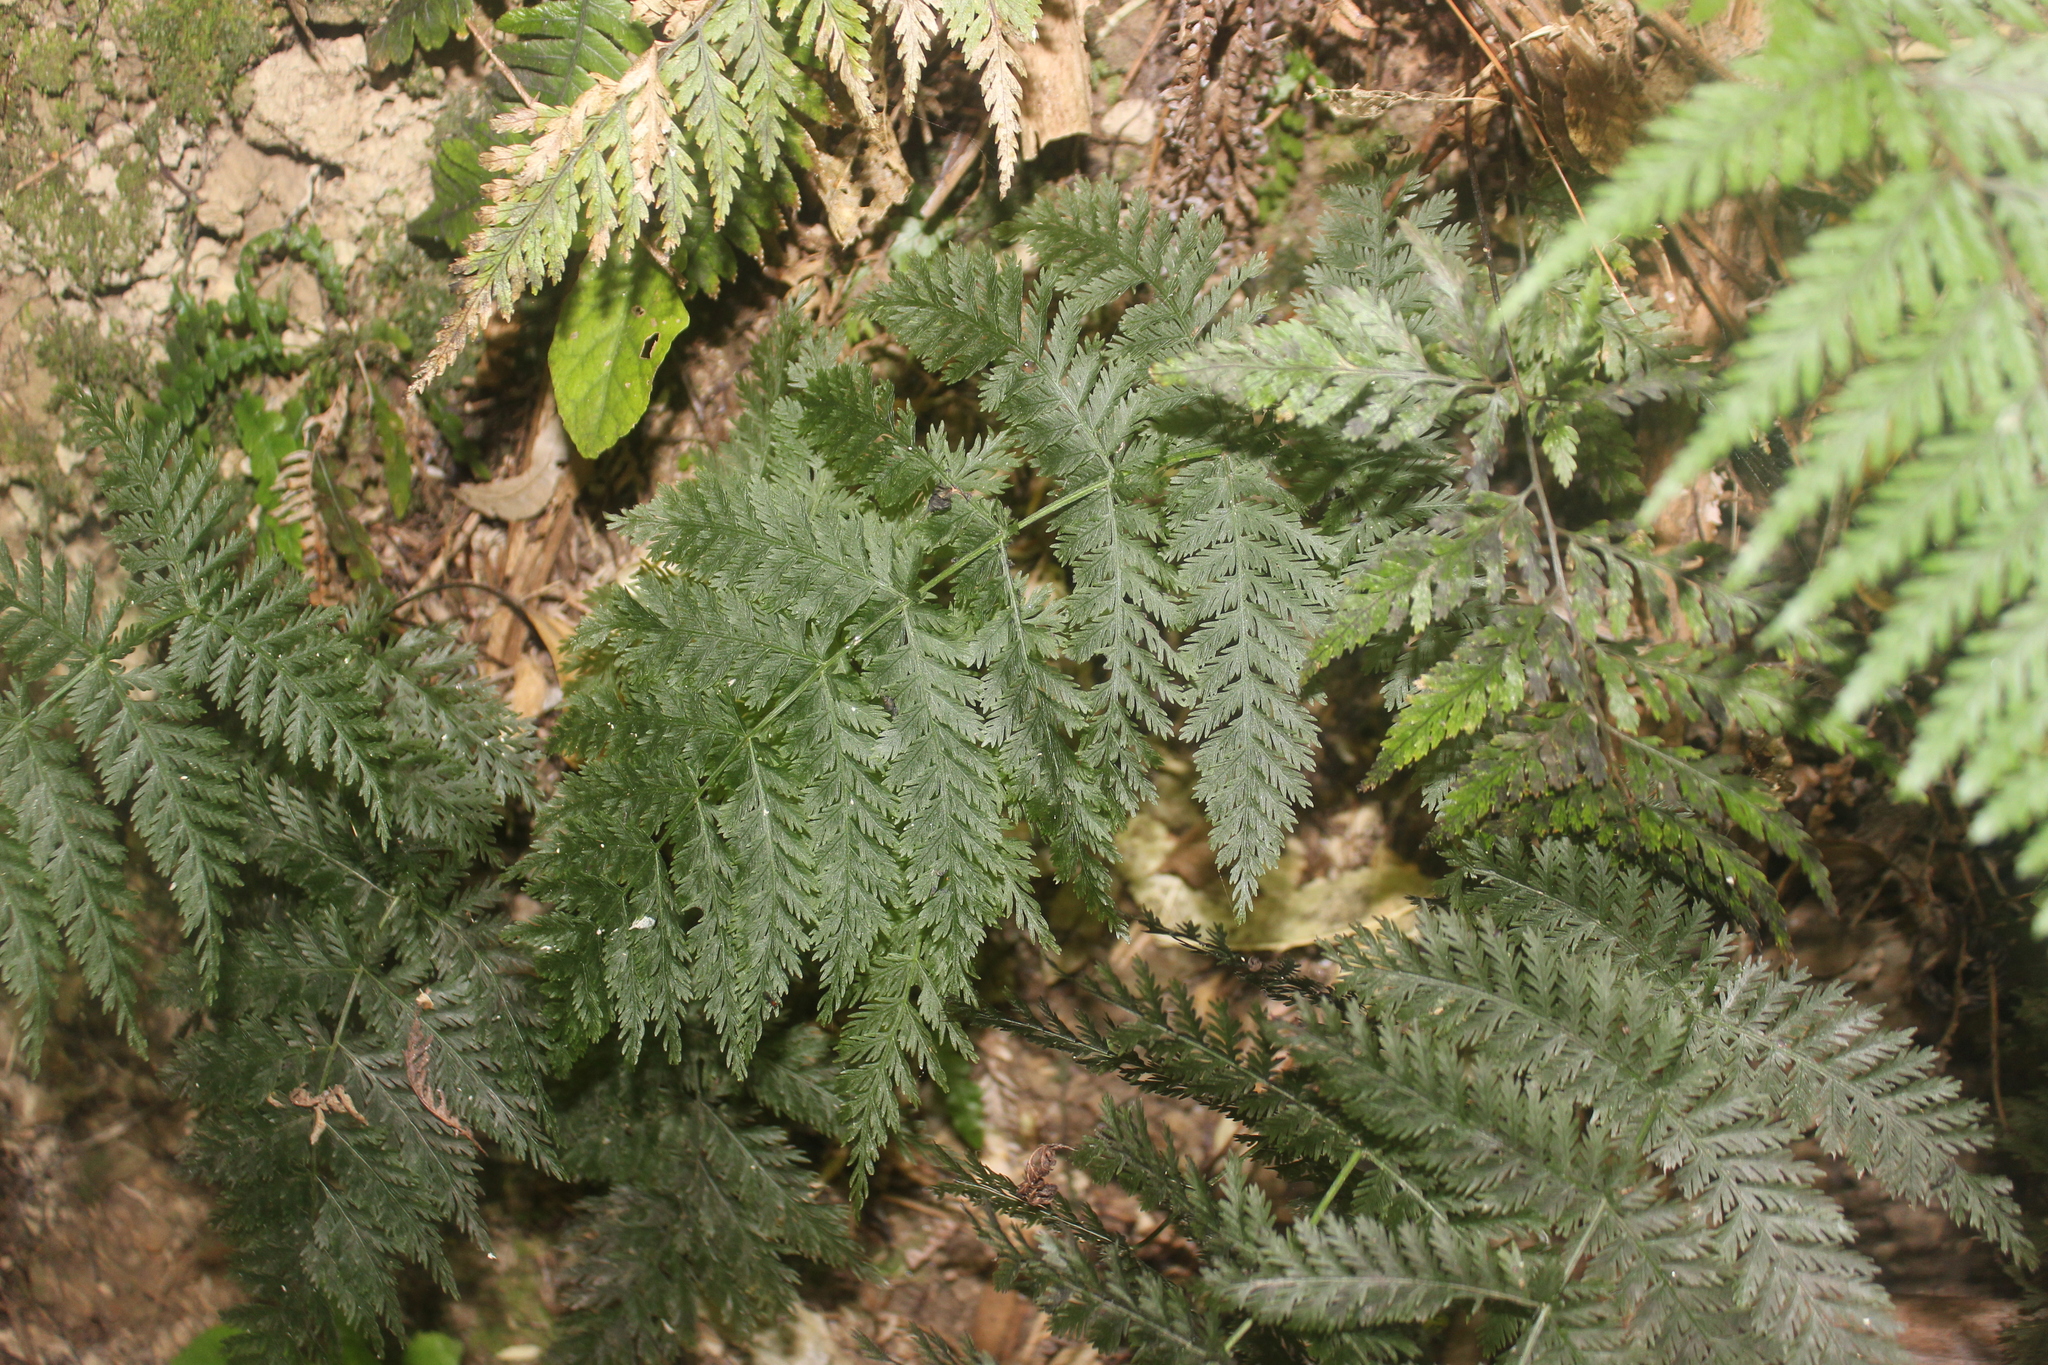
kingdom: Plantae
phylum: Tracheophyta
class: Polypodiopsida
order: Osmundales
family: Osmundaceae
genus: Leptopteris
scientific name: Leptopteris hymenophylloides
